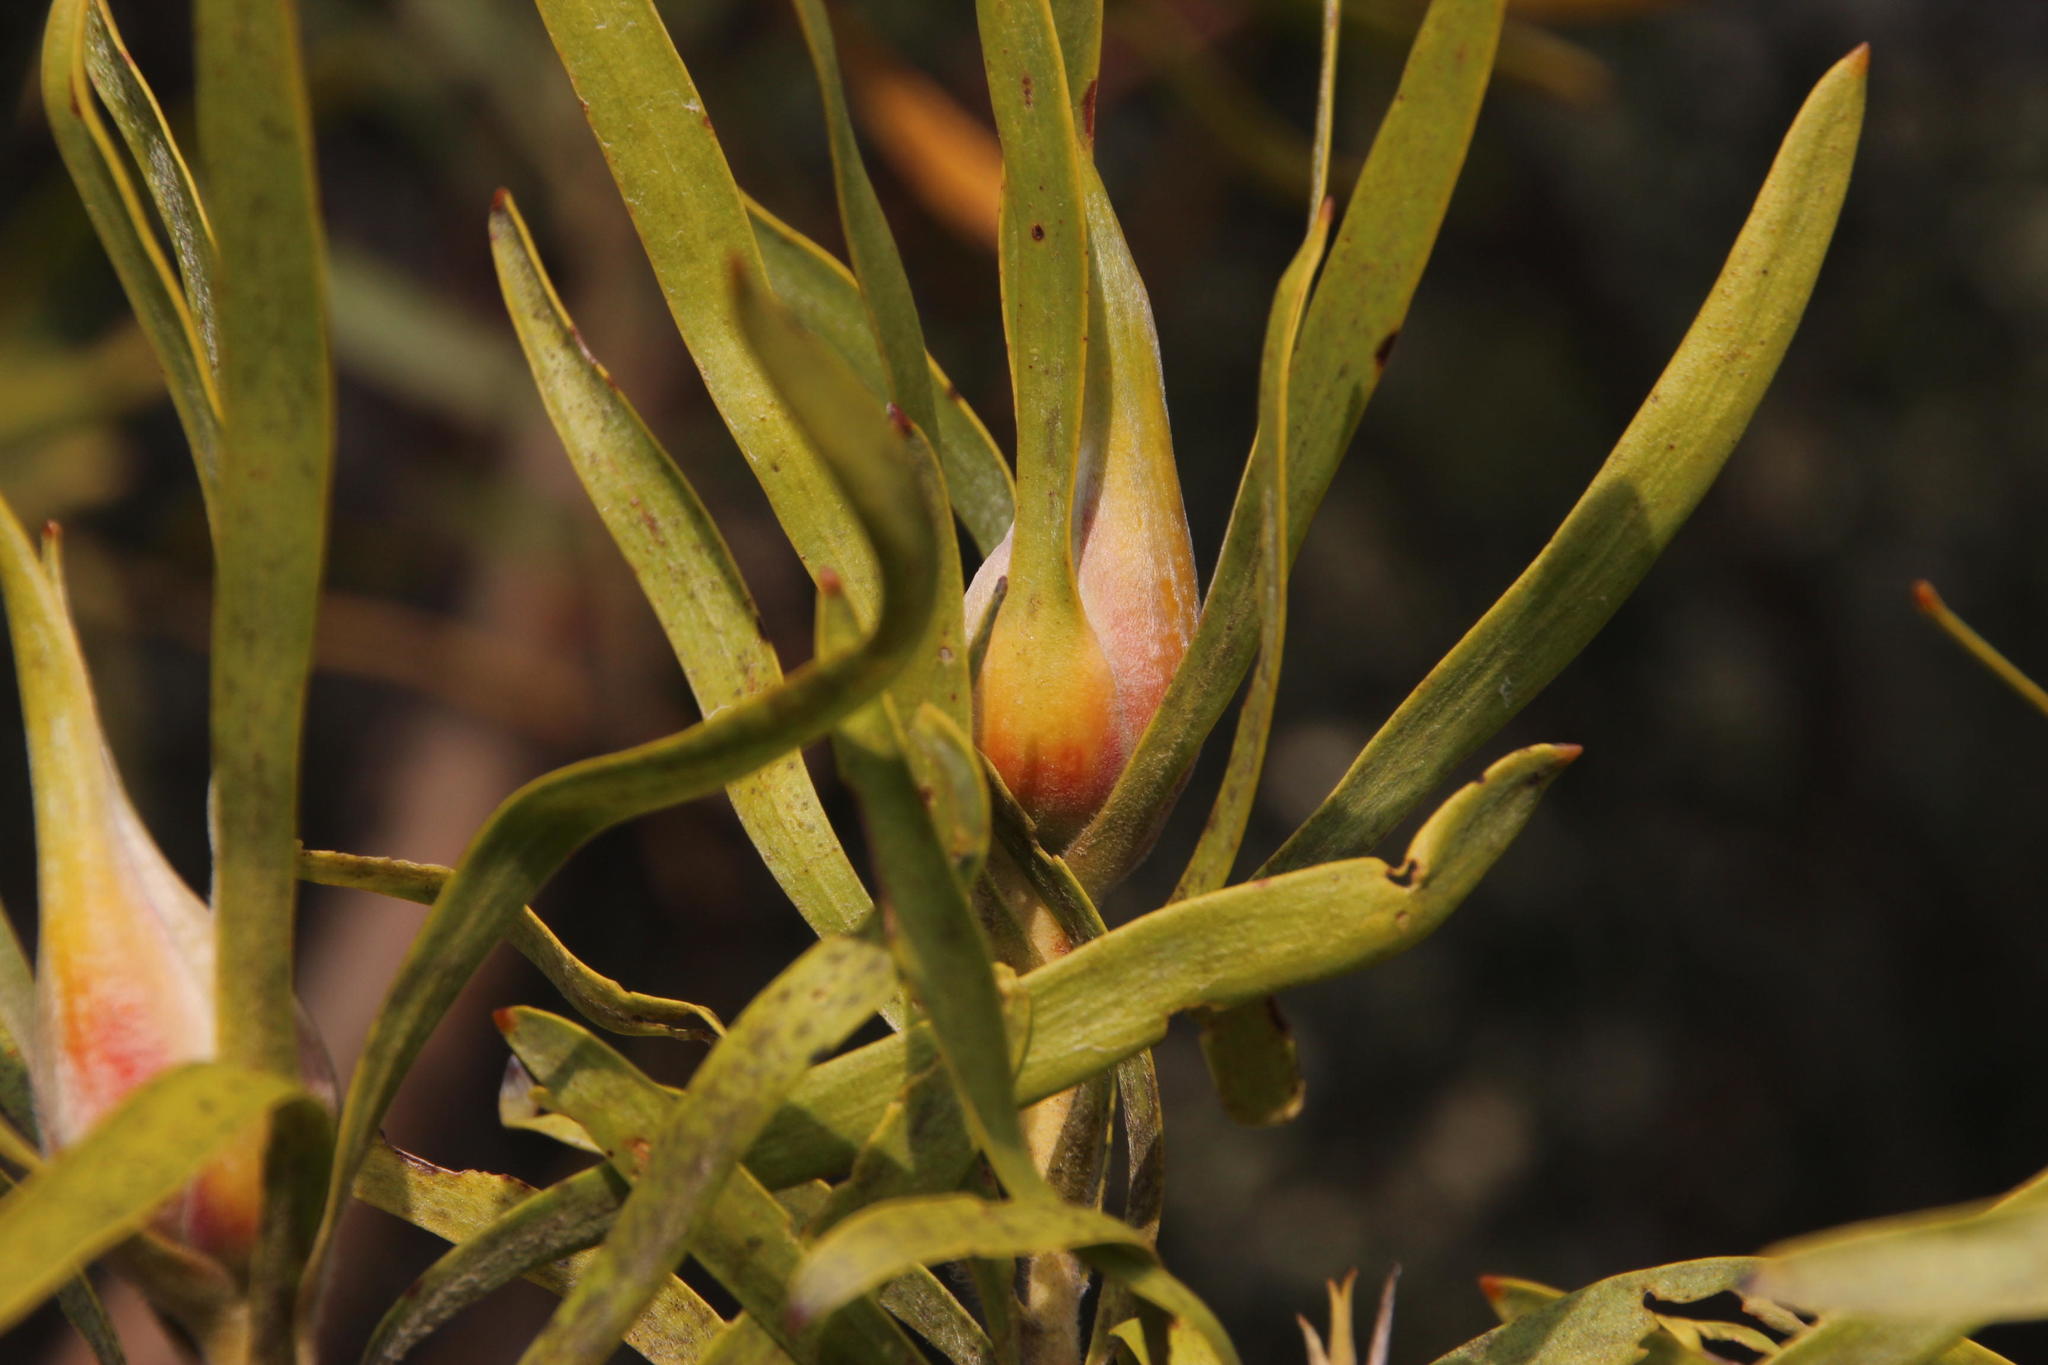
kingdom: Plantae
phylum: Tracheophyta
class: Magnoliopsida
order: Proteales
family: Proteaceae
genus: Leucadendron
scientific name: Leucadendron eucalyptifolium
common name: Gum-leaved conebush
